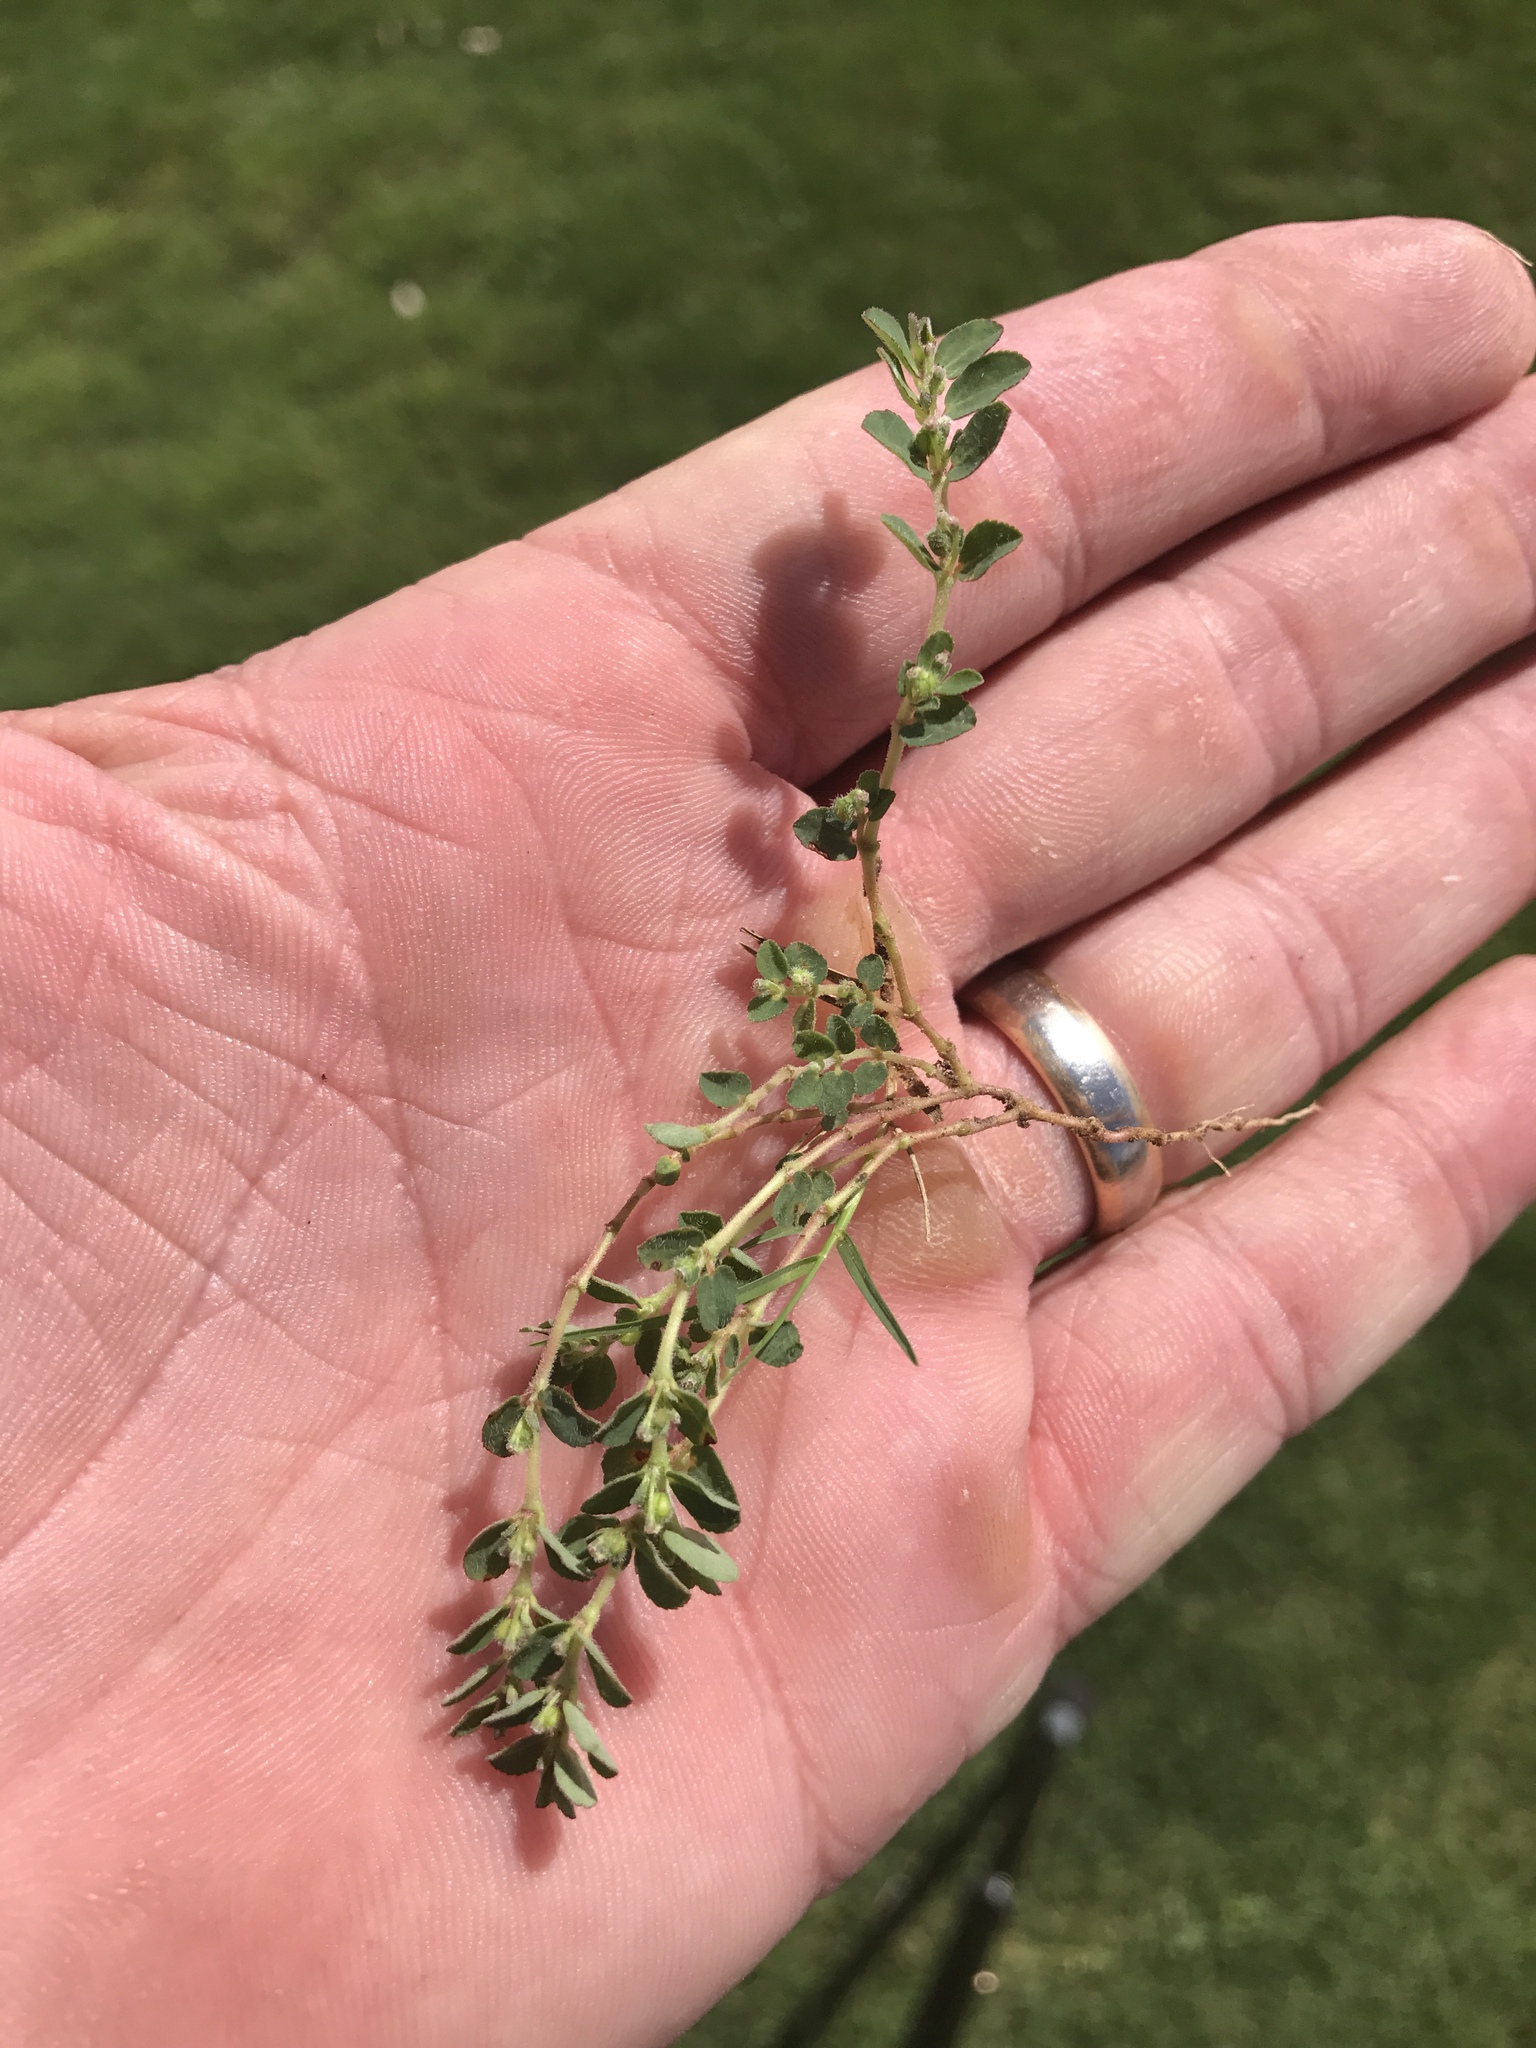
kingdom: Plantae
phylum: Tracheophyta
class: Magnoliopsida
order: Malpighiales
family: Euphorbiaceae
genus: Euphorbia
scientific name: Euphorbia prostrata
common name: Prostrate sandmat
